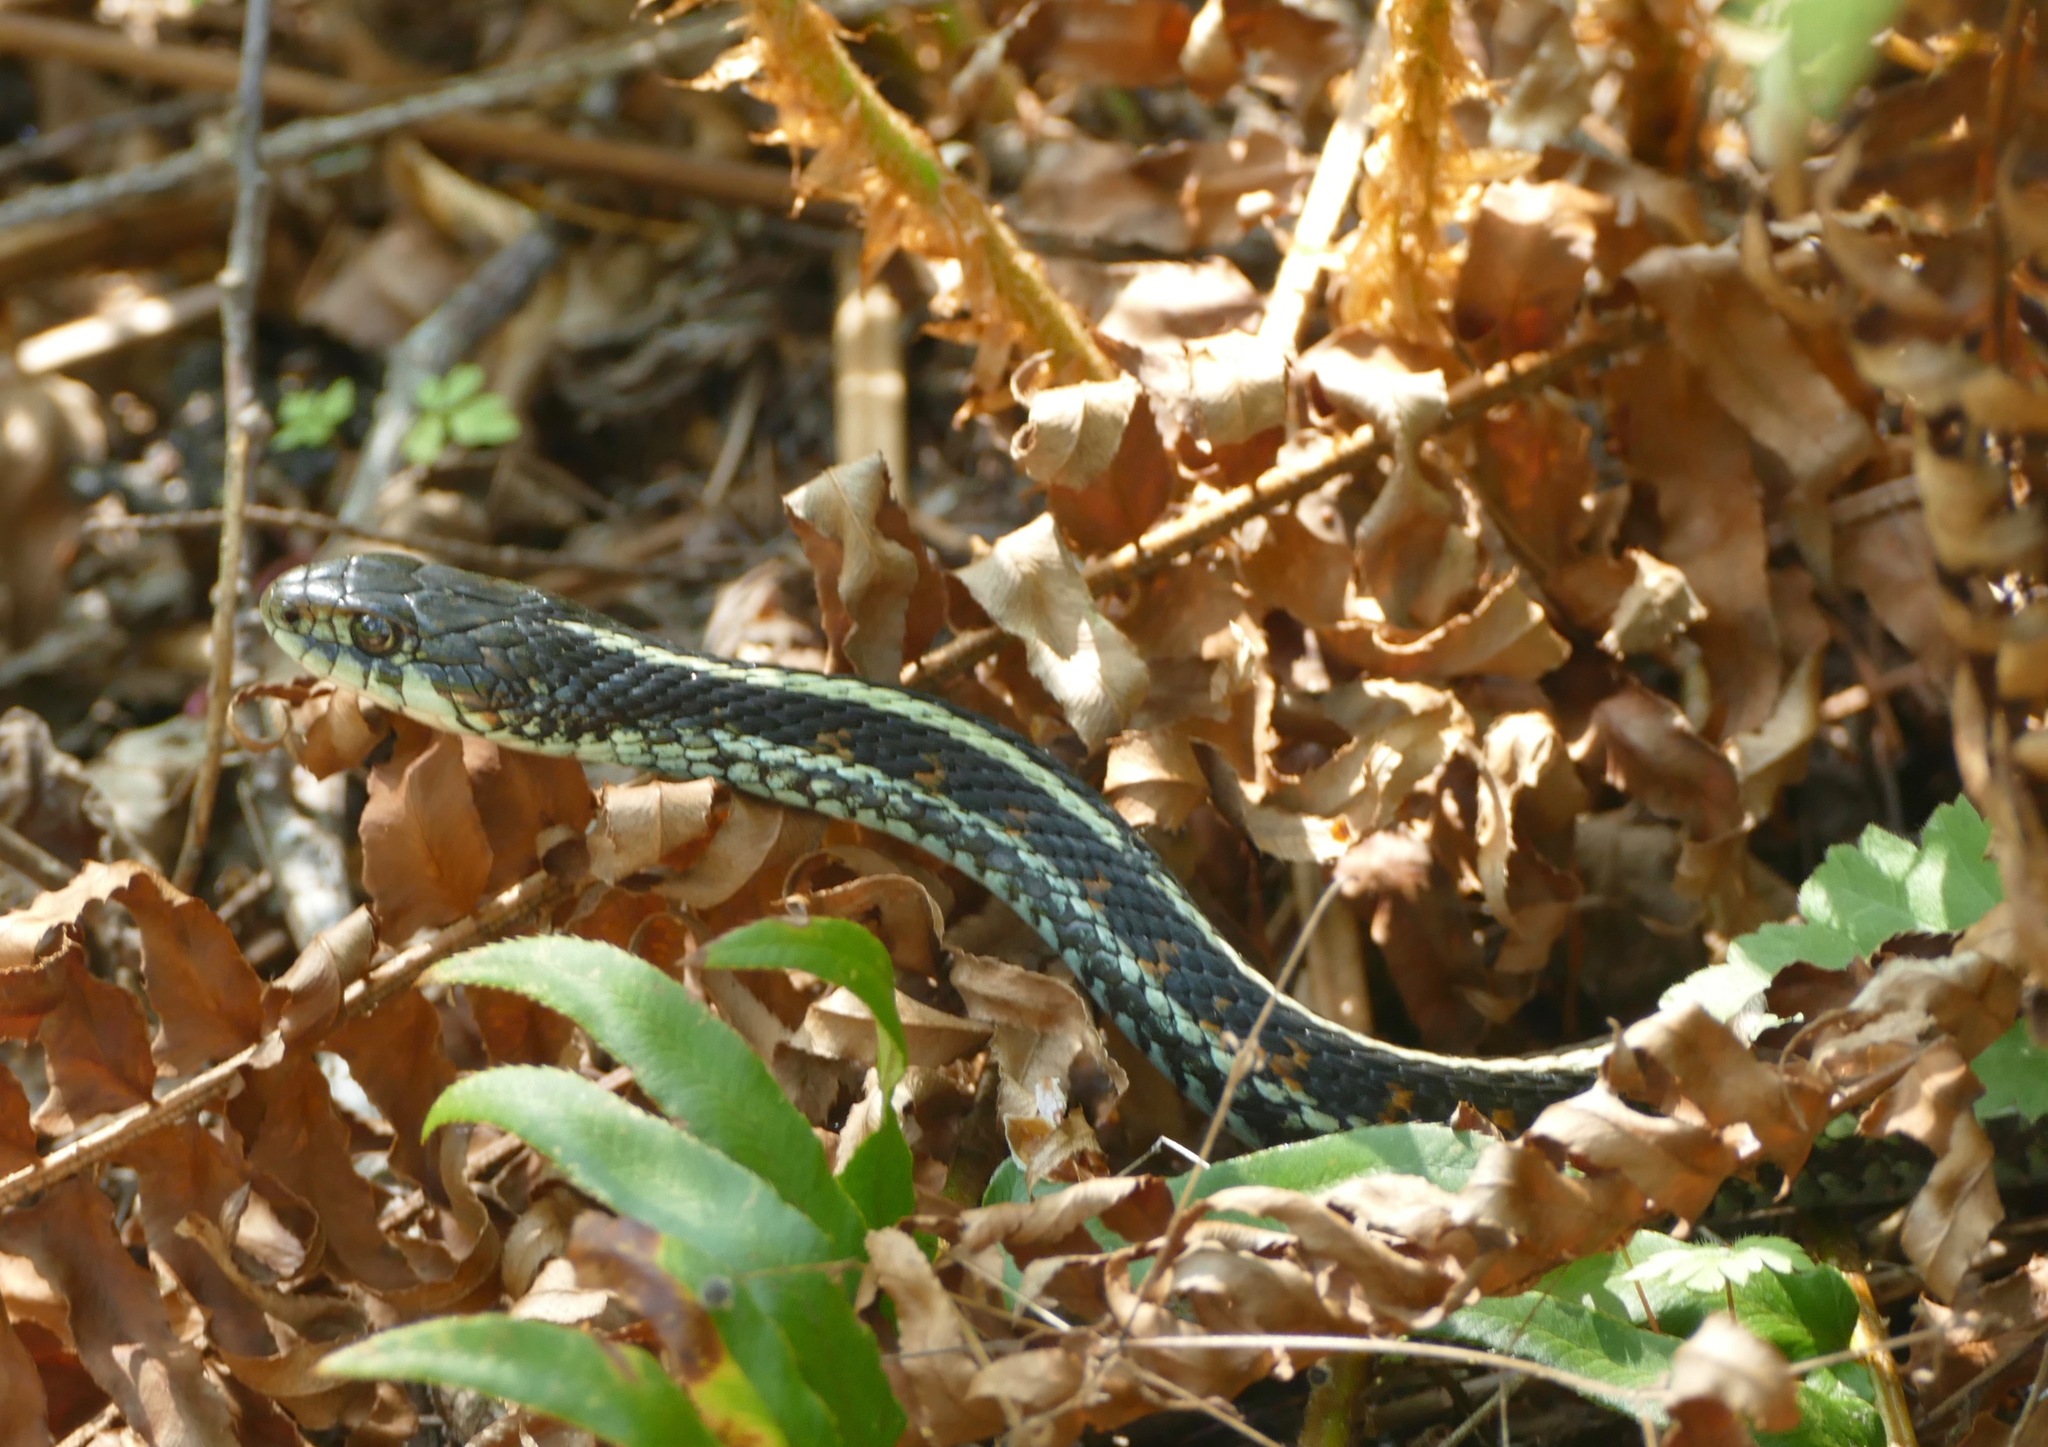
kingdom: Animalia
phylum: Chordata
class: Squamata
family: Colubridae
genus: Thamnophis
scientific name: Thamnophis sirtalis
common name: Common garter snake
